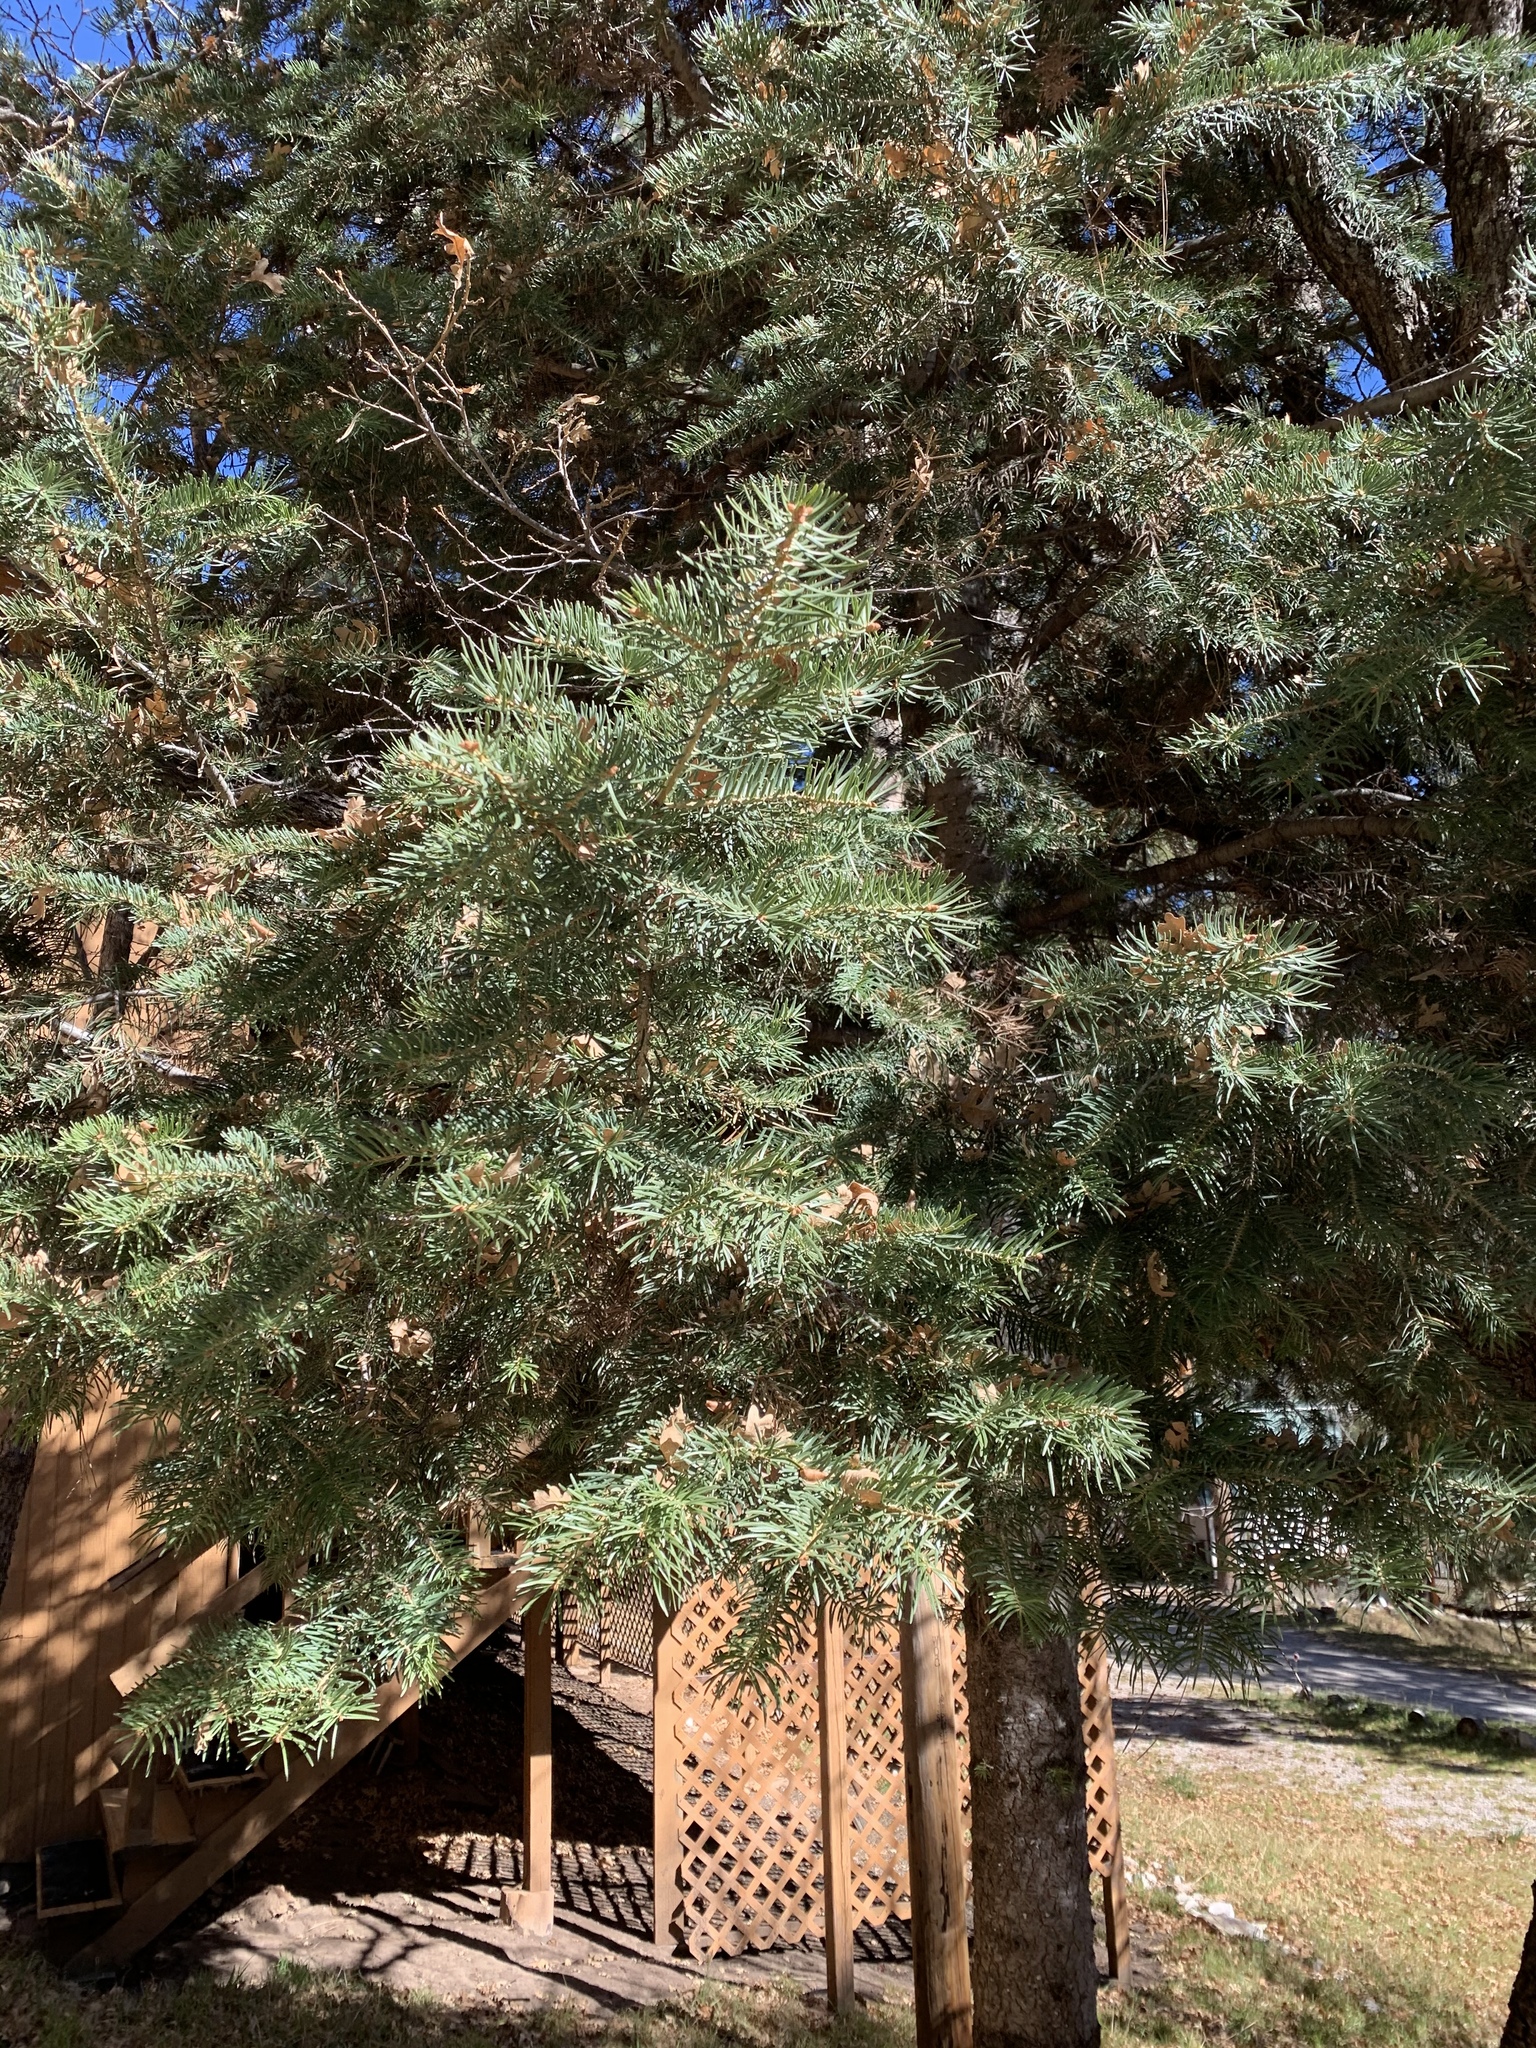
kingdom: Plantae
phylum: Tracheophyta
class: Pinopsida
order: Pinales
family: Pinaceae
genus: Abies
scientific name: Abies concolor
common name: Colorado fir
